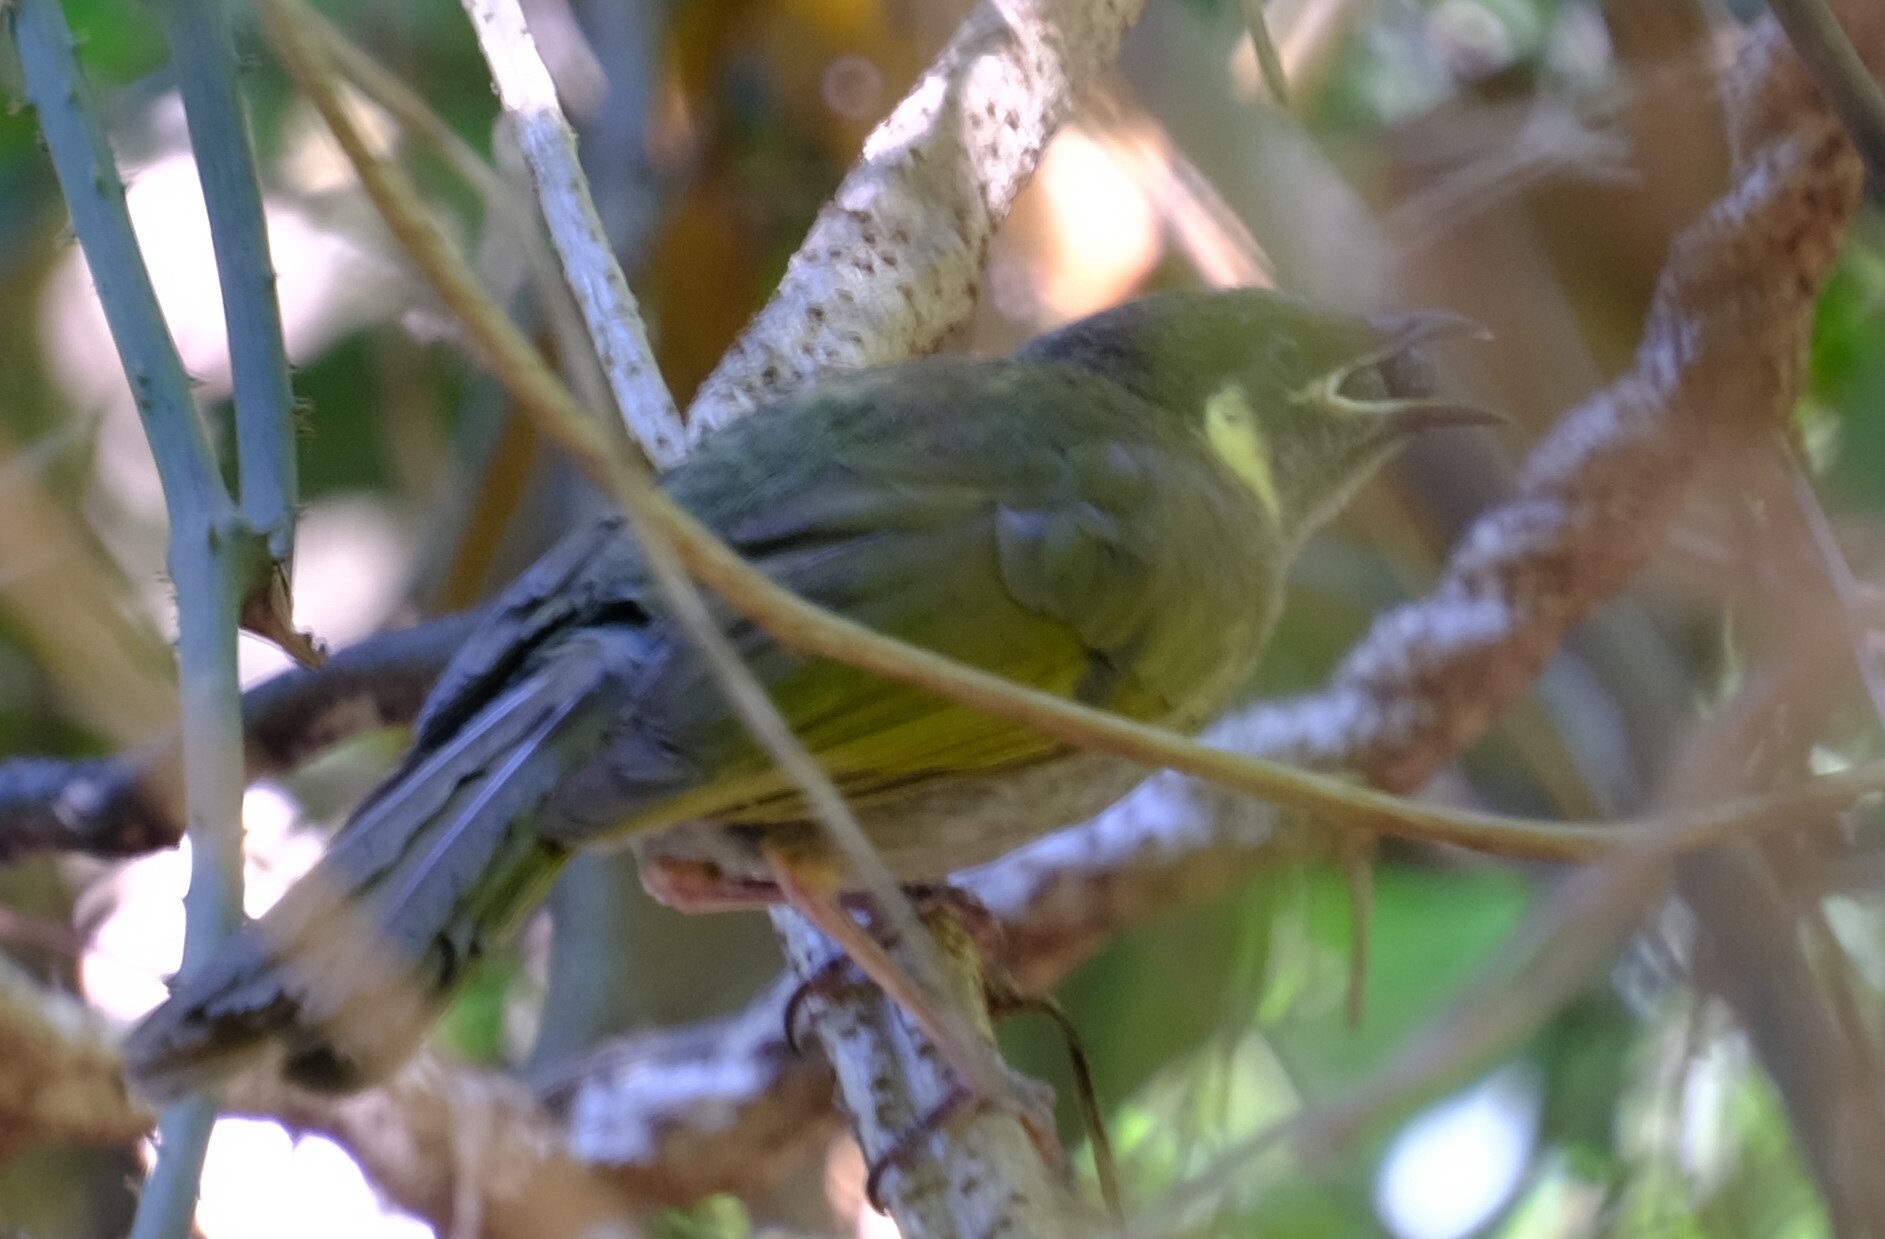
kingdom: Animalia
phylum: Chordata
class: Aves
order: Passeriformes
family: Meliphagidae
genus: Meliphaga
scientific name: Meliphaga lewinii
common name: Lewin's honeyeater
